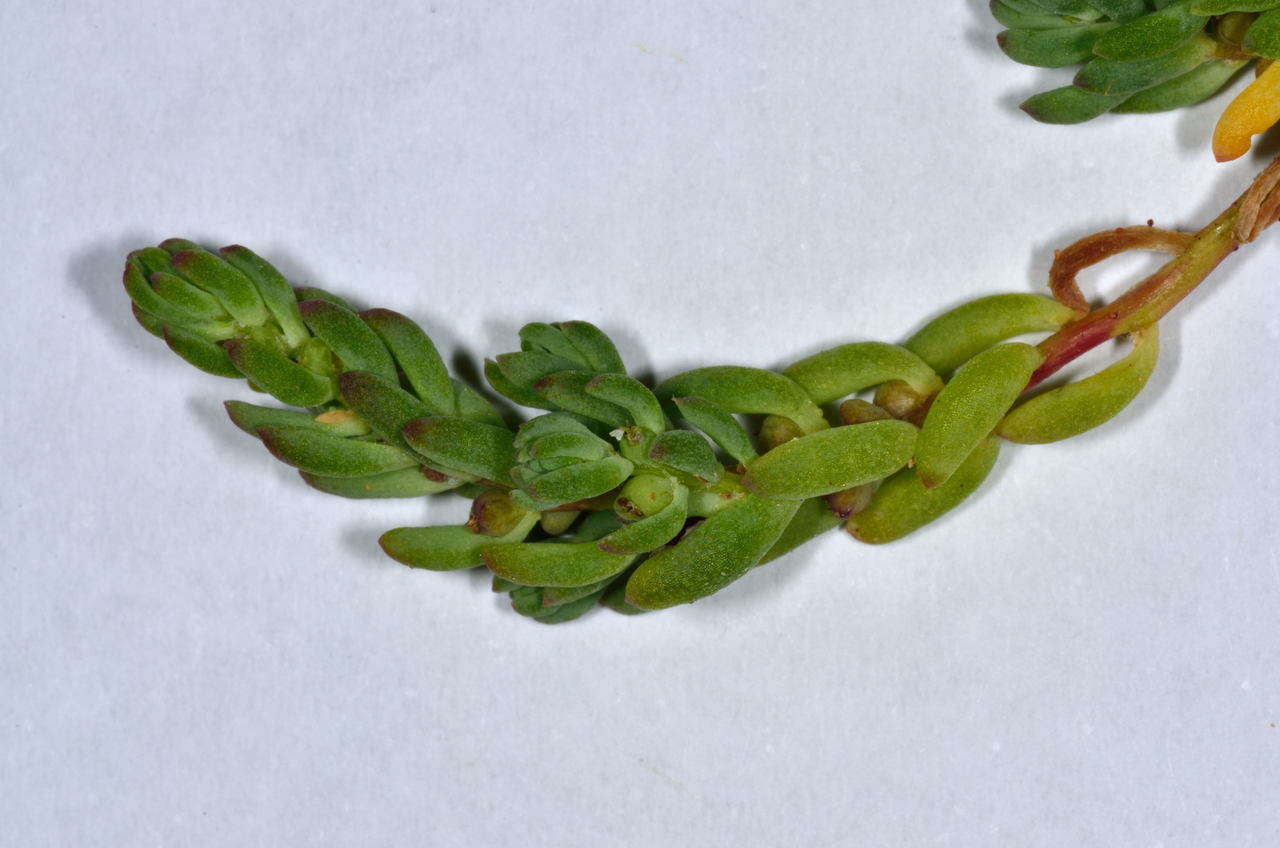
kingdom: Plantae
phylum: Tracheophyta
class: Magnoliopsida
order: Caryophyllales
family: Amaranthaceae
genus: Osteocarpum
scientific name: Osteocarpum salsuginosum
